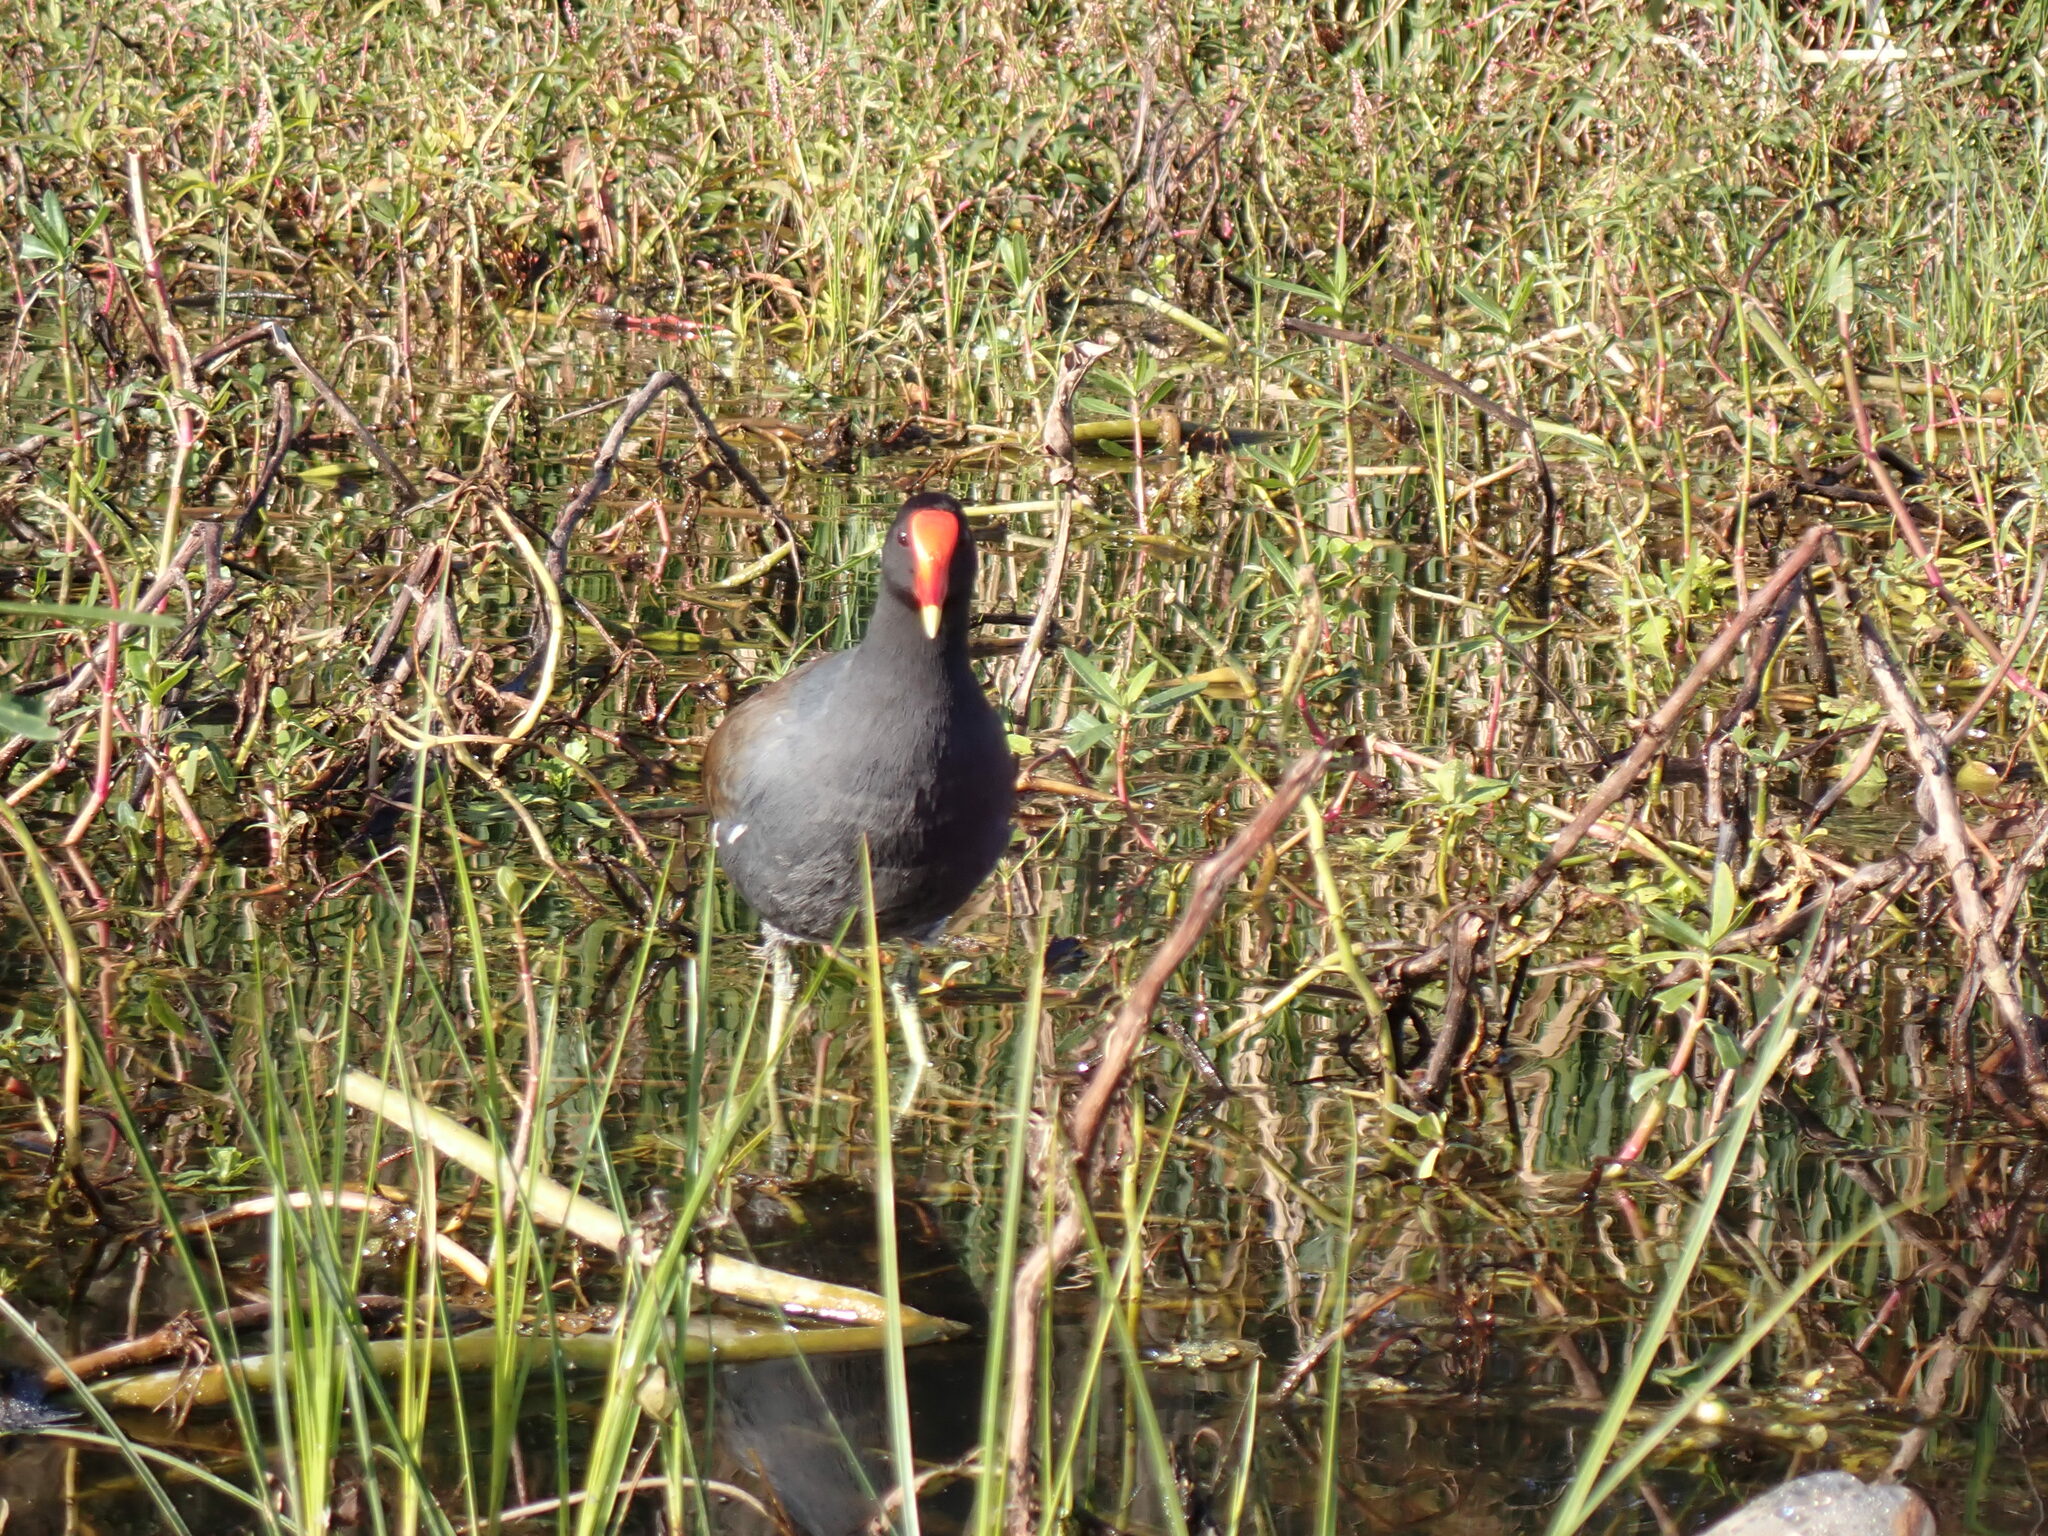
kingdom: Animalia
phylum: Chordata
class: Aves
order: Gruiformes
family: Rallidae
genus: Gallinula
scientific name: Gallinula chloropus
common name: Common moorhen
